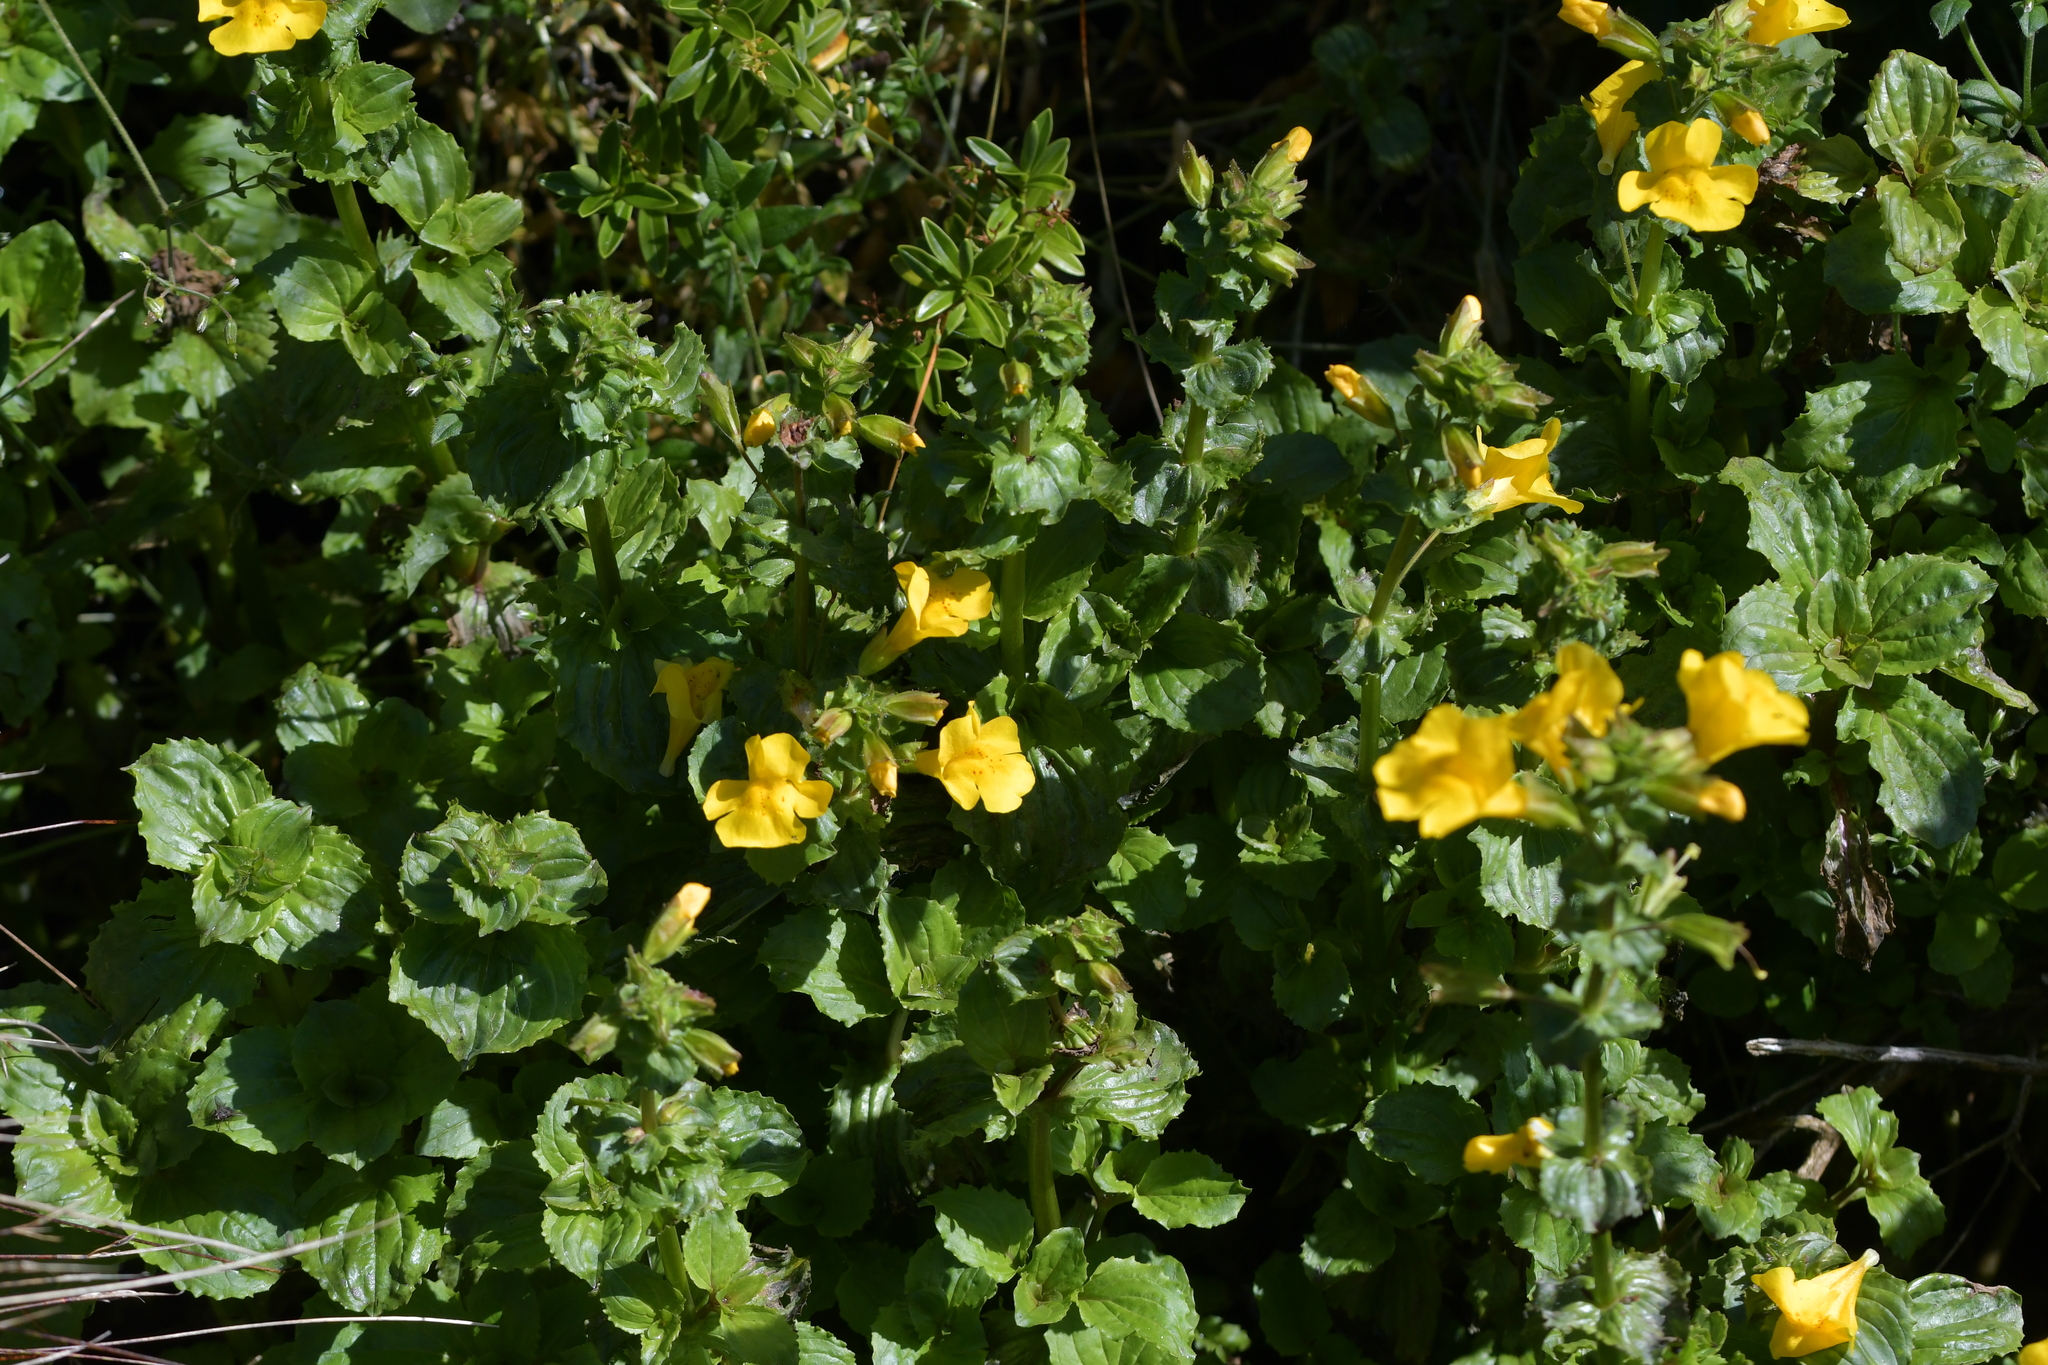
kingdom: Plantae
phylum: Tracheophyta
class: Magnoliopsida
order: Lamiales
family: Phrymaceae
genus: Erythranthe
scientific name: Erythranthe guttata
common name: Monkeyflower
